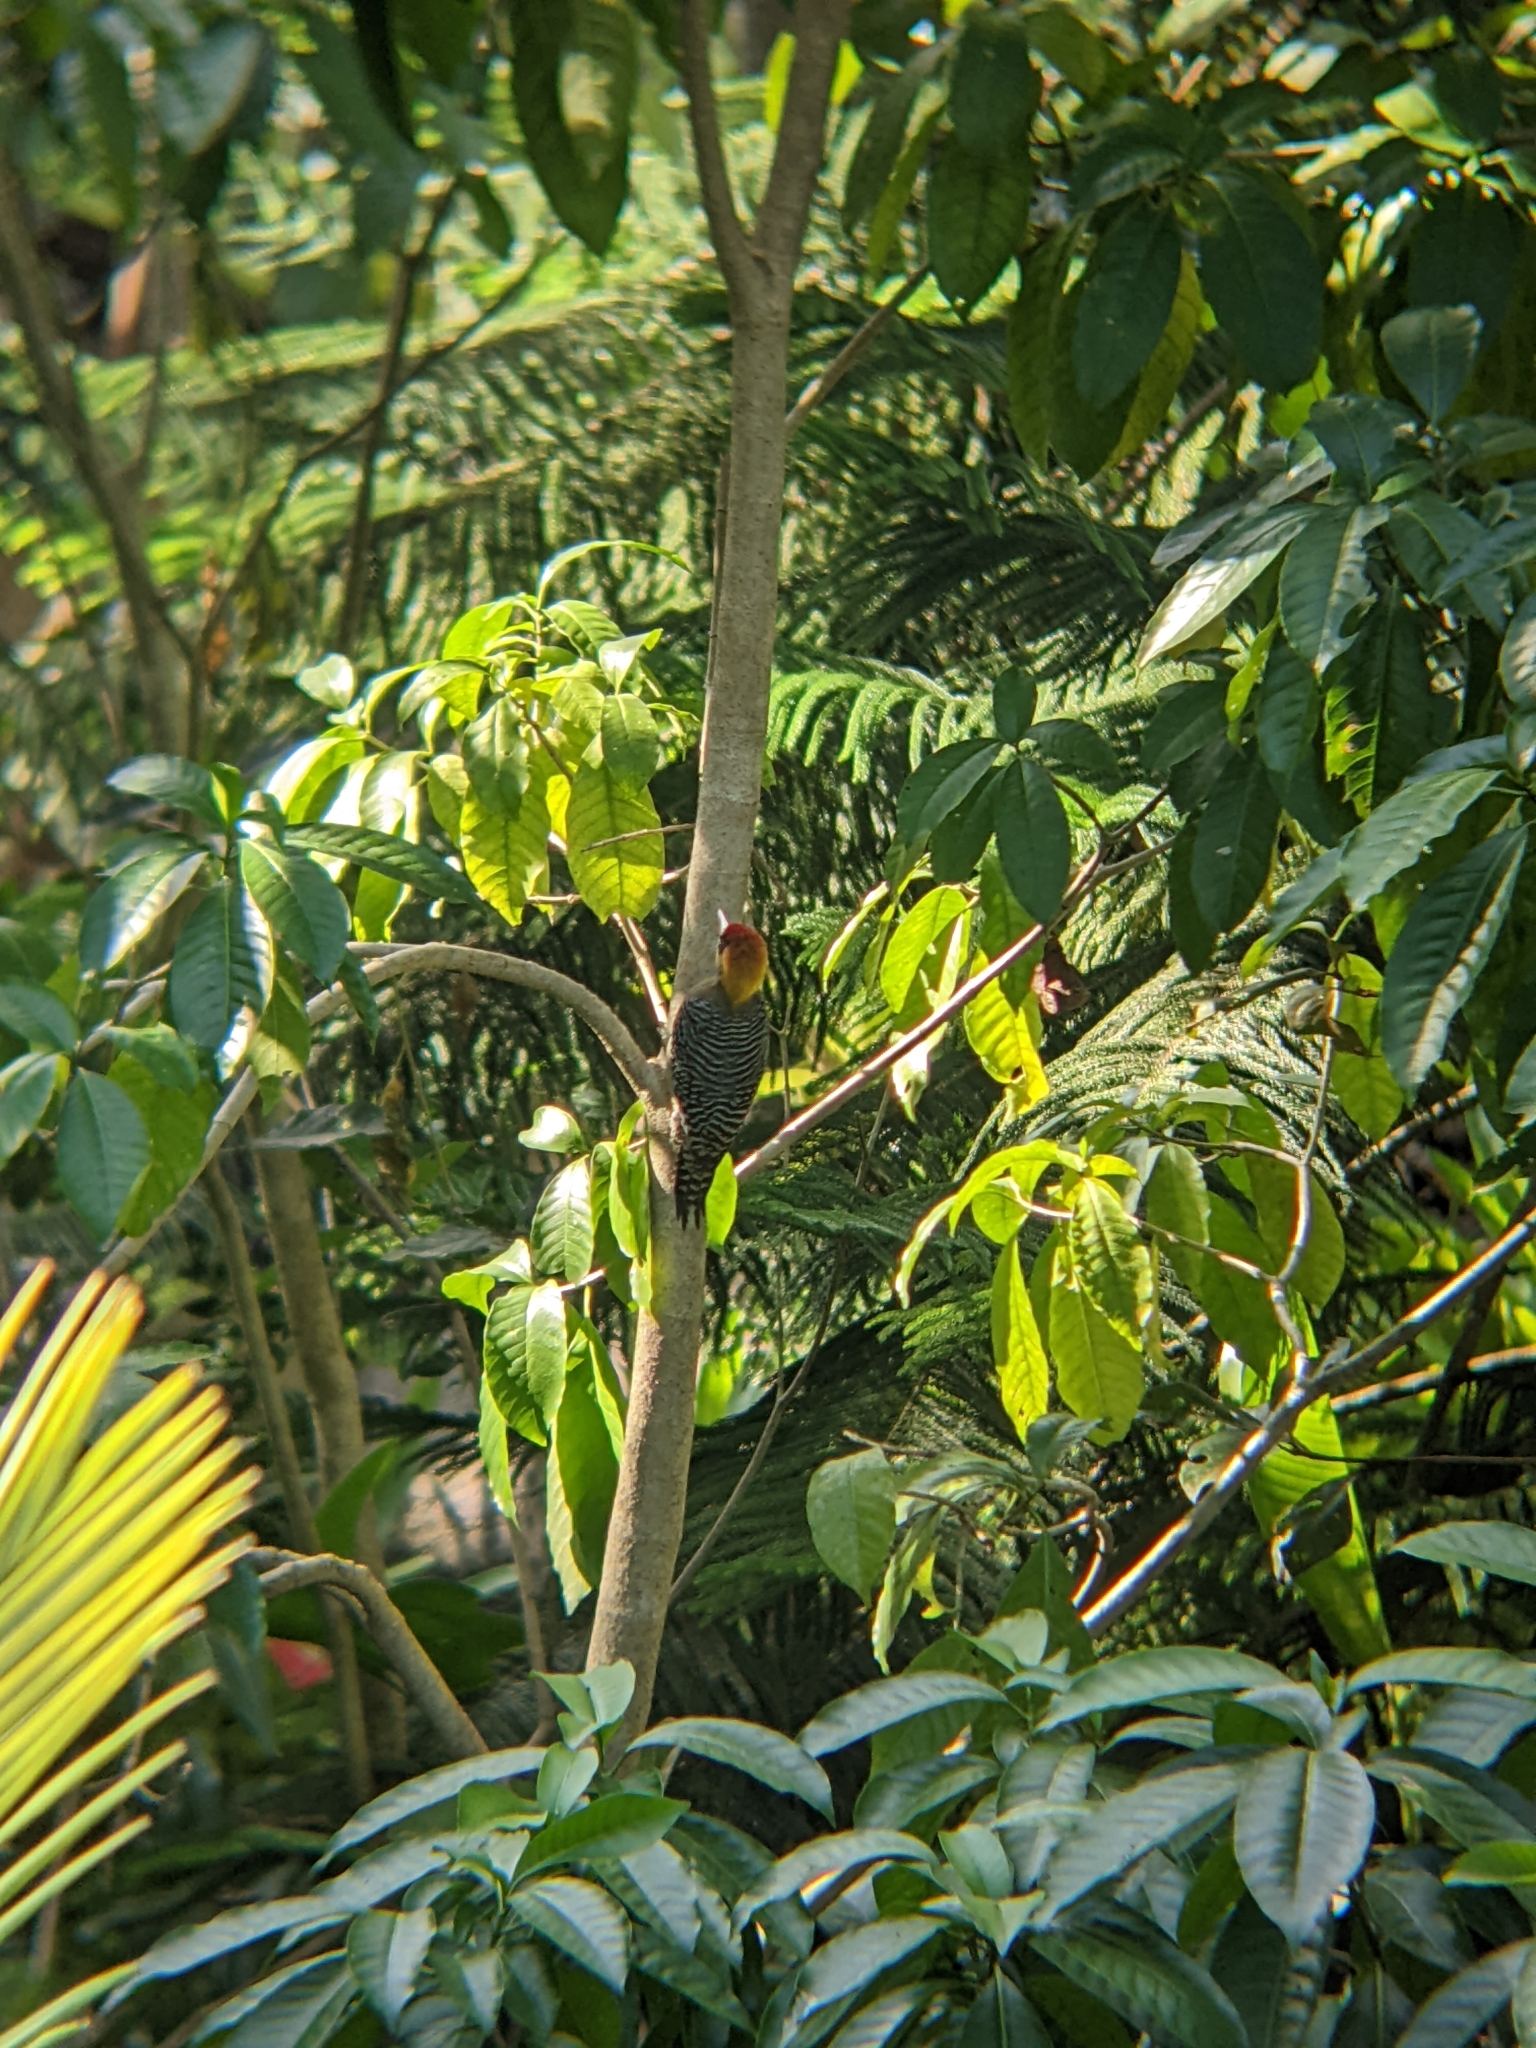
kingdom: Animalia
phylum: Chordata
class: Aves
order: Piciformes
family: Picidae
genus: Melanerpes
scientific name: Melanerpes chrysogenys
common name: Golden-cheeked woodpecker
